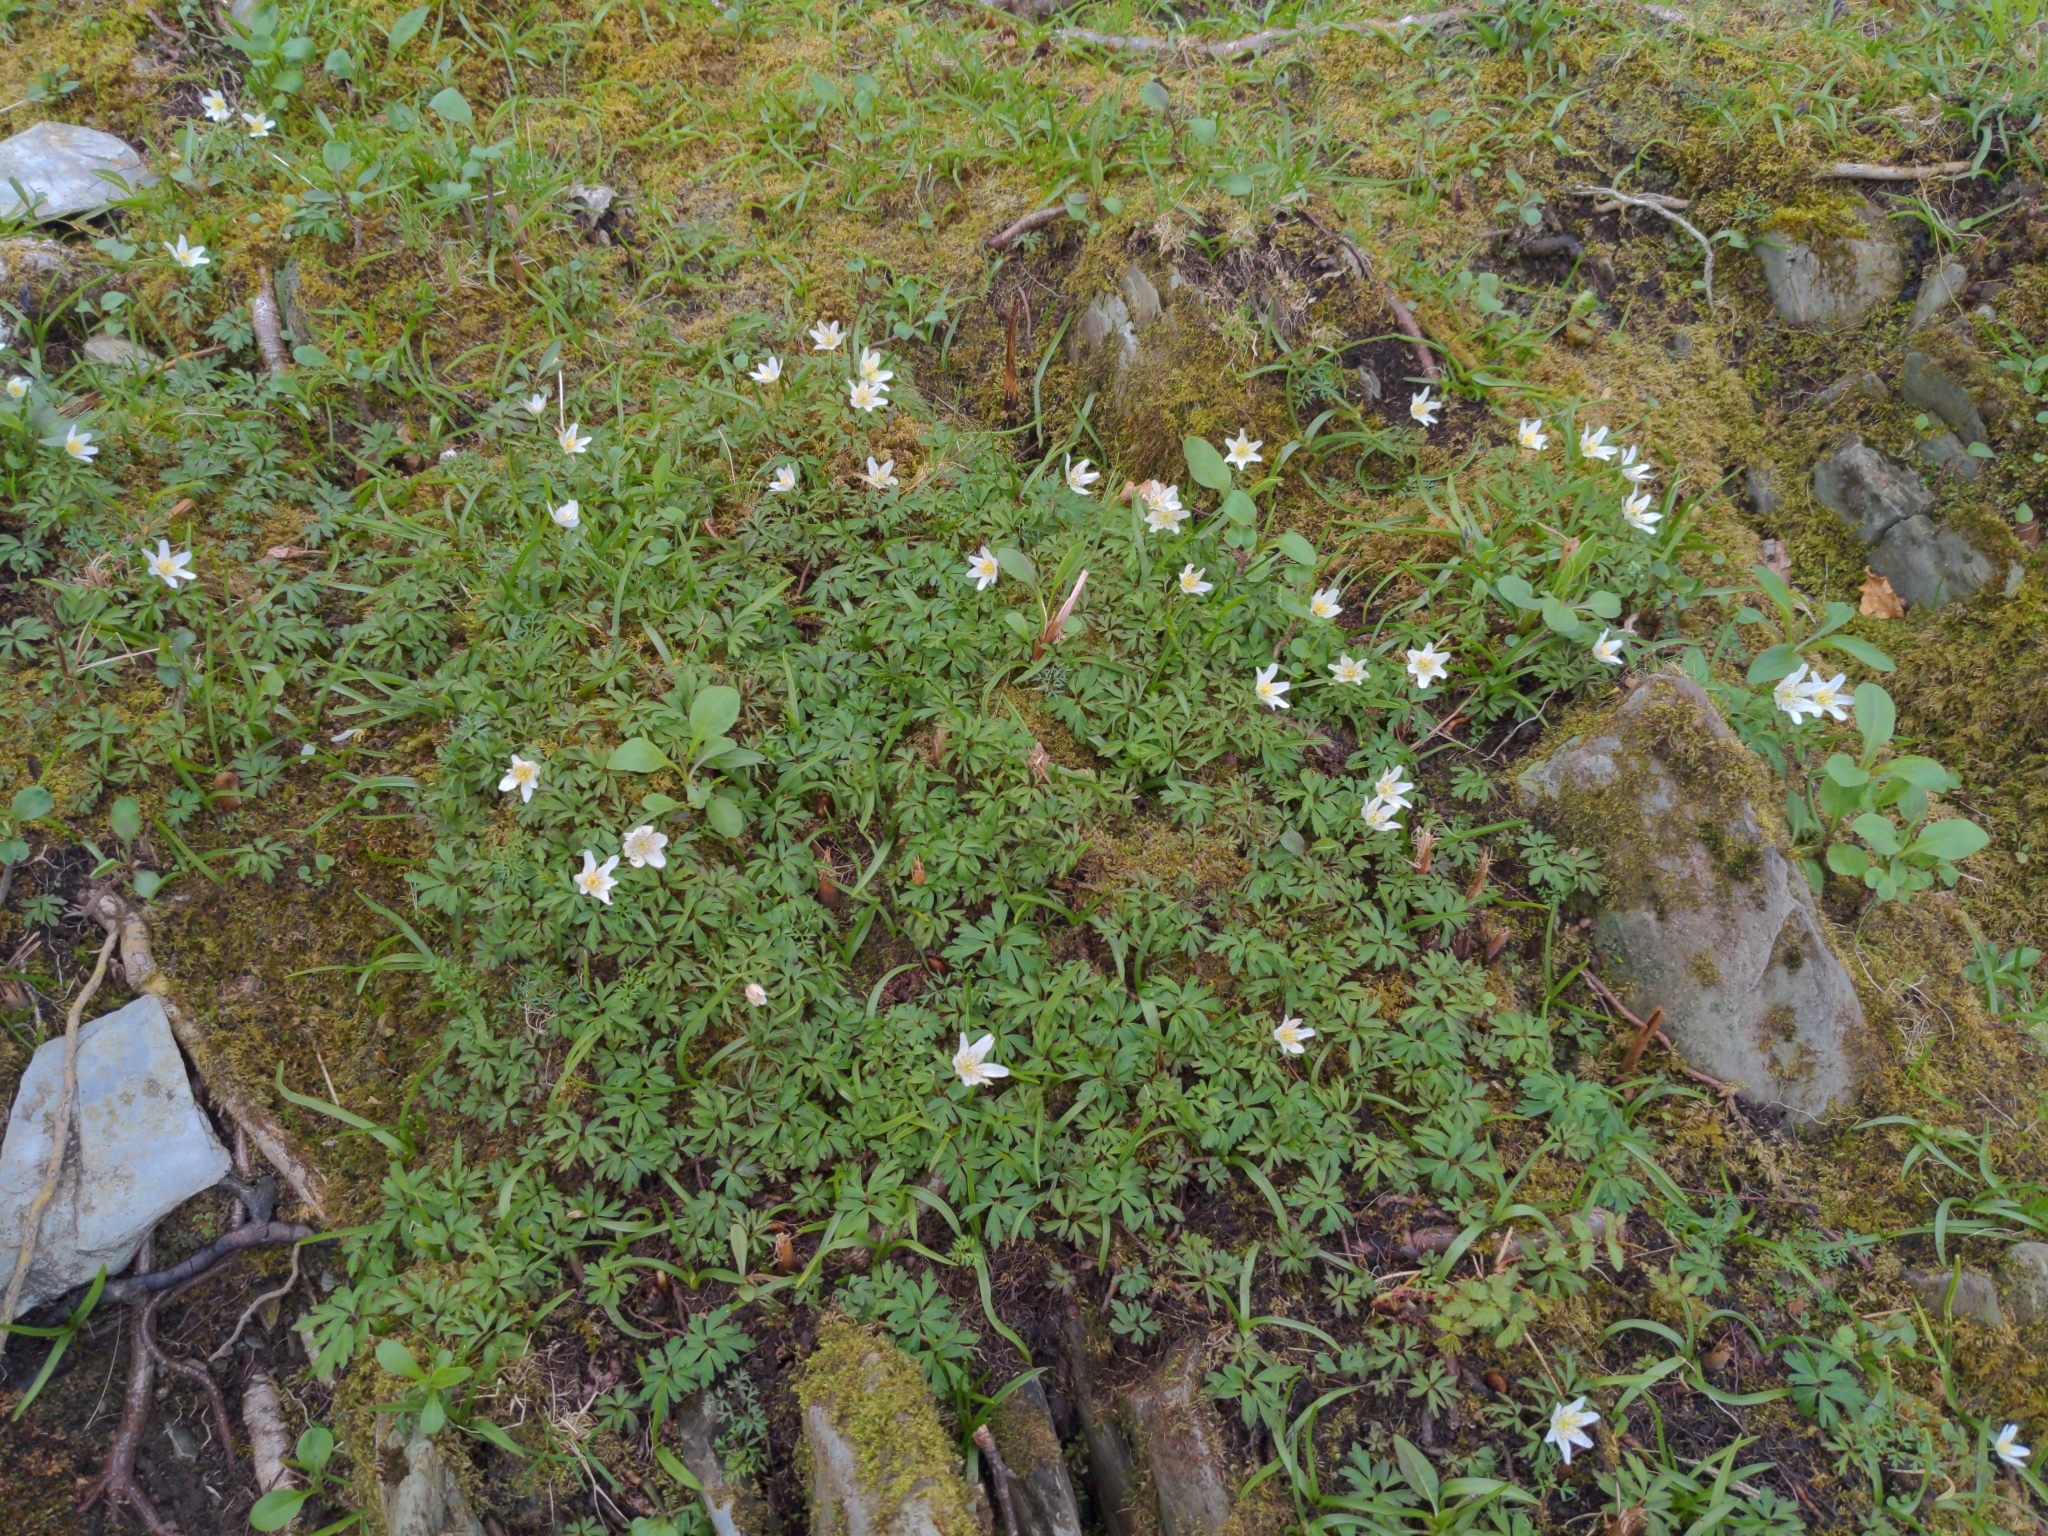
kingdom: Plantae
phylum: Tracheophyta
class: Magnoliopsida
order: Ranunculales
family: Ranunculaceae
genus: Anemone
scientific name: Anemone nemorosa
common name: Wood anemone
